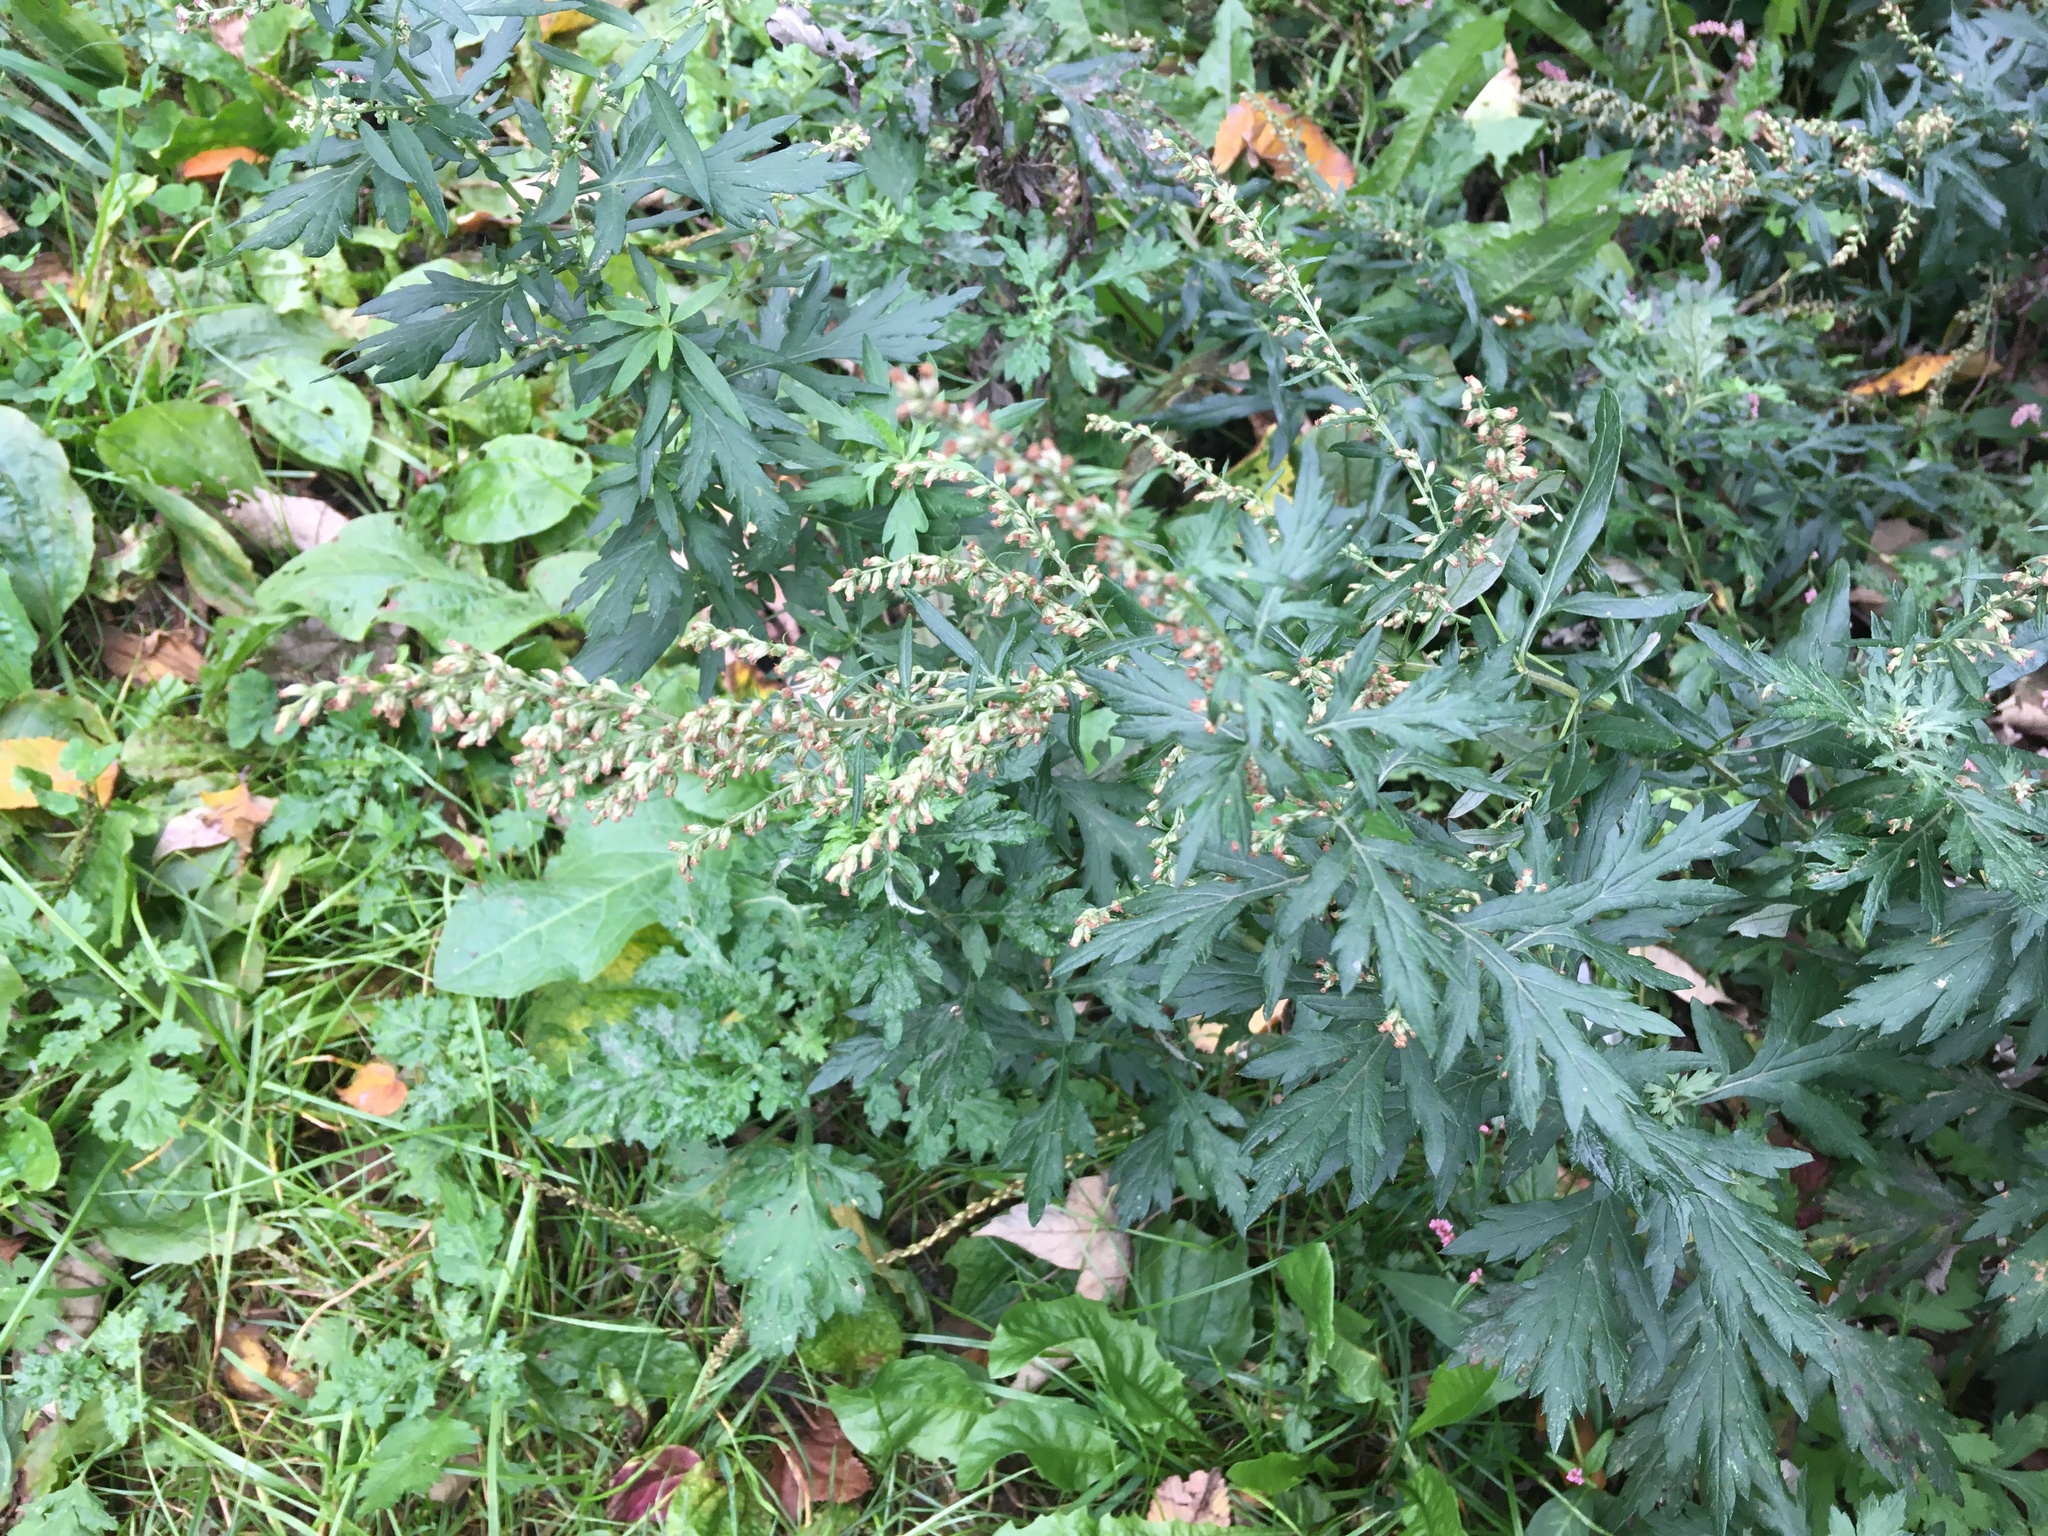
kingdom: Plantae
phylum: Tracheophyta
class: Magnoliopsida
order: Asterales
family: Asteraceae
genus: Artemisia
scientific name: Artemisia vulgaris
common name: Mugwort
